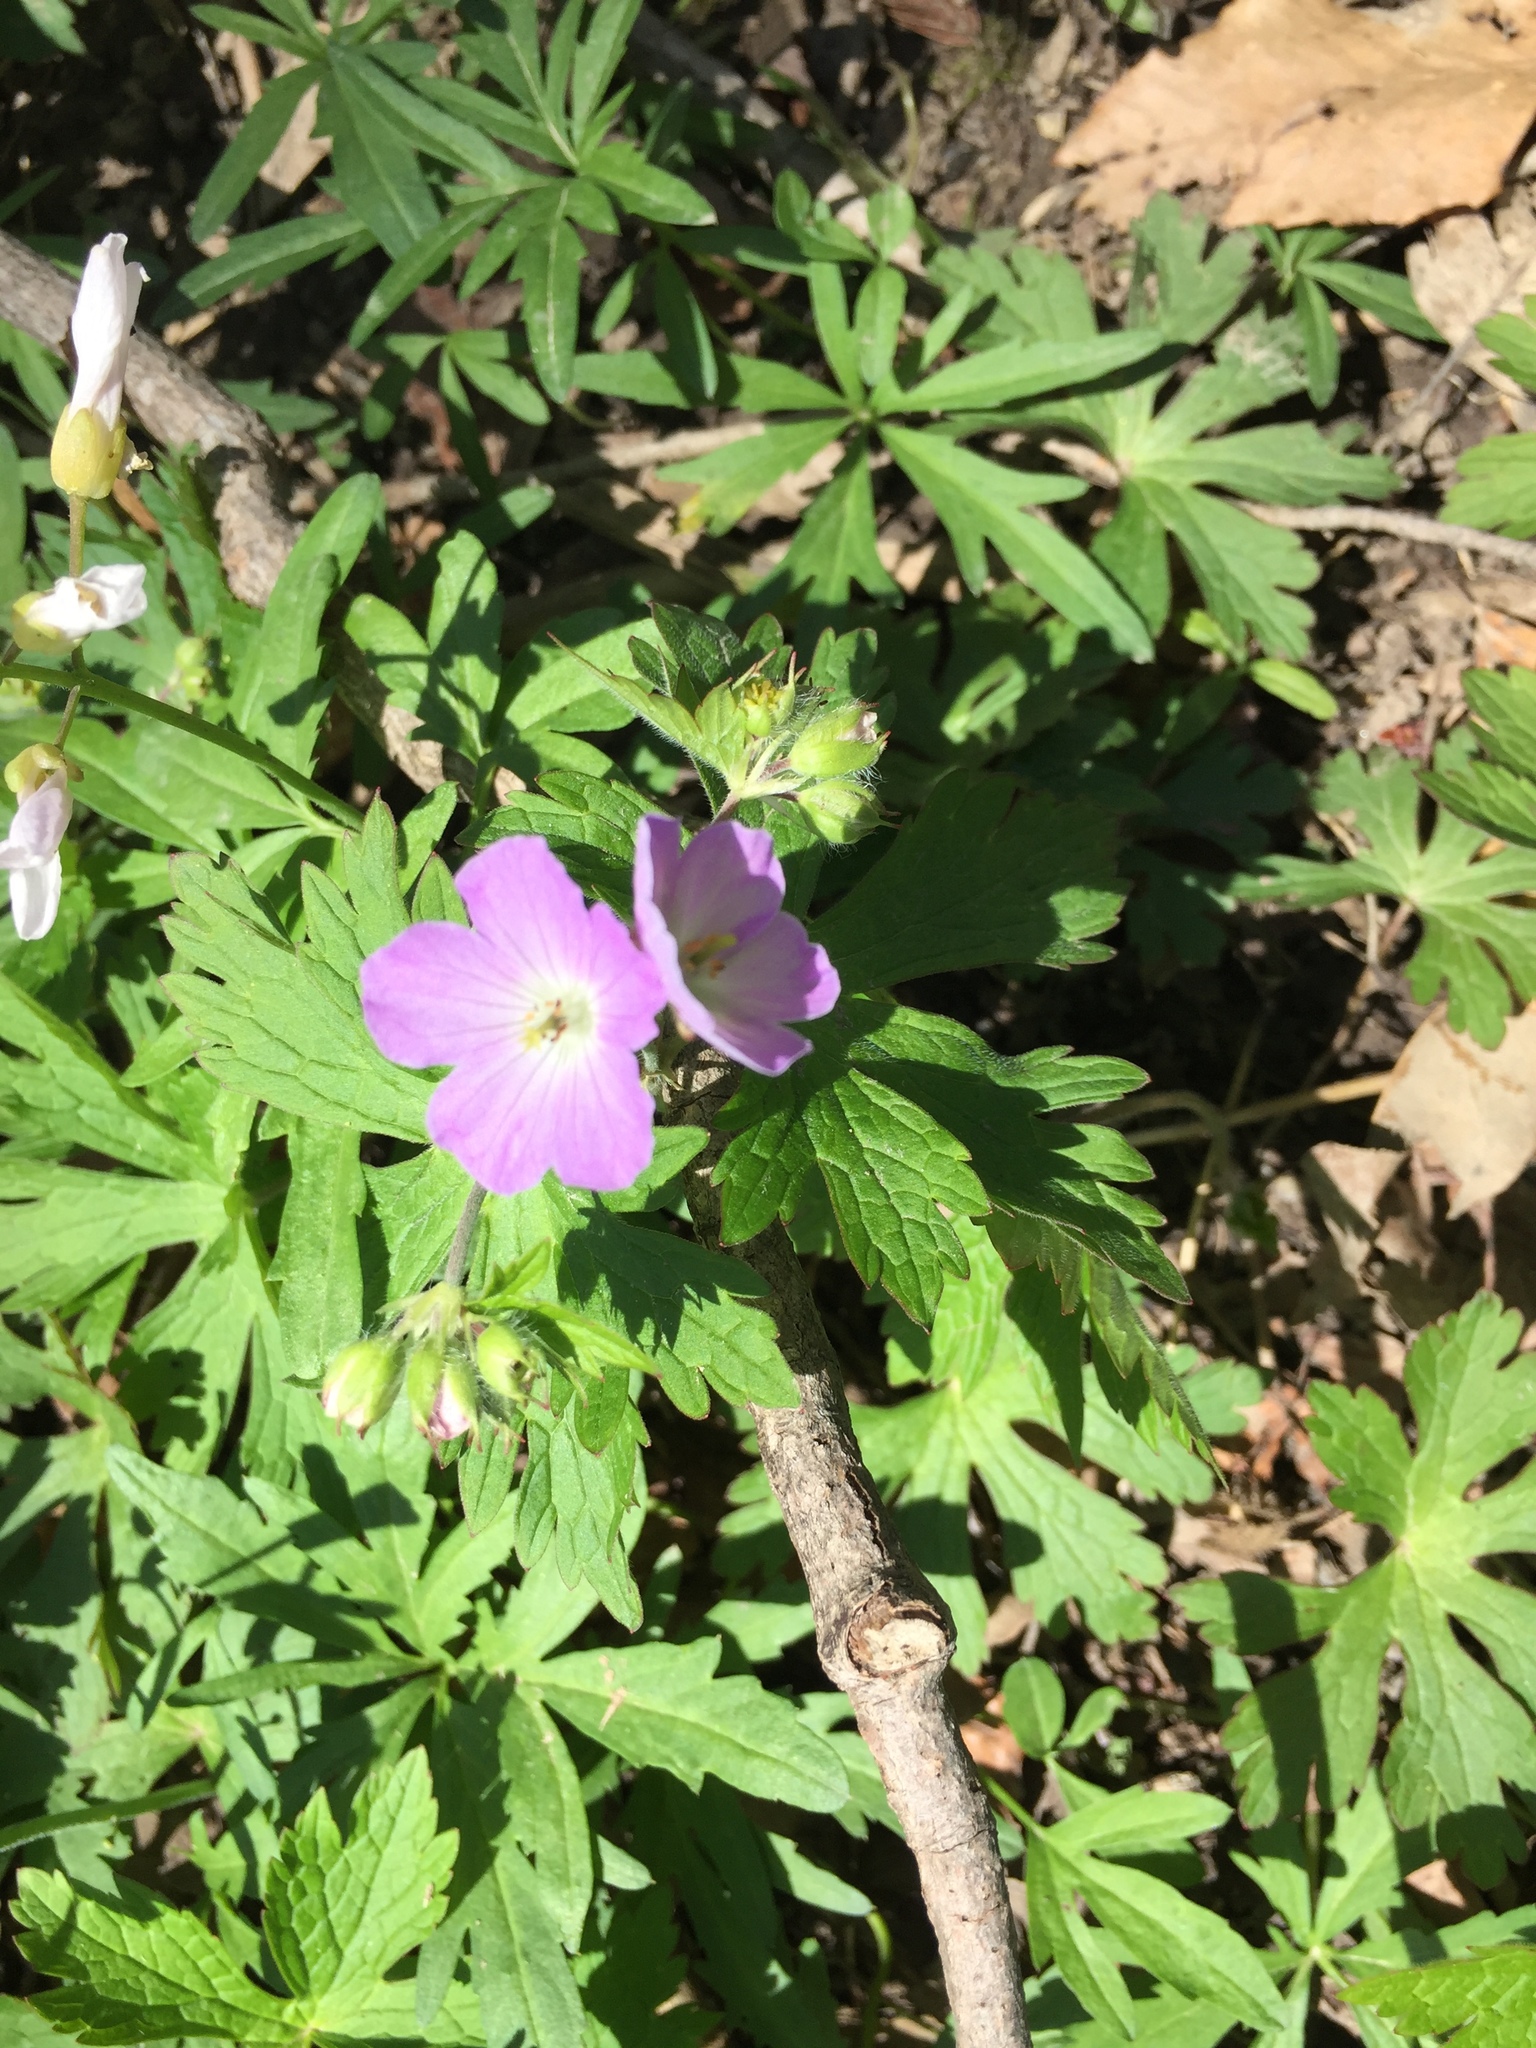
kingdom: Plantae
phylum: Tracheophyta
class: Magnoliopsida
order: Geraniales
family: Geraniaceae
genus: Geranium
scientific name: Geranium maculatum
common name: Spotted geranium
